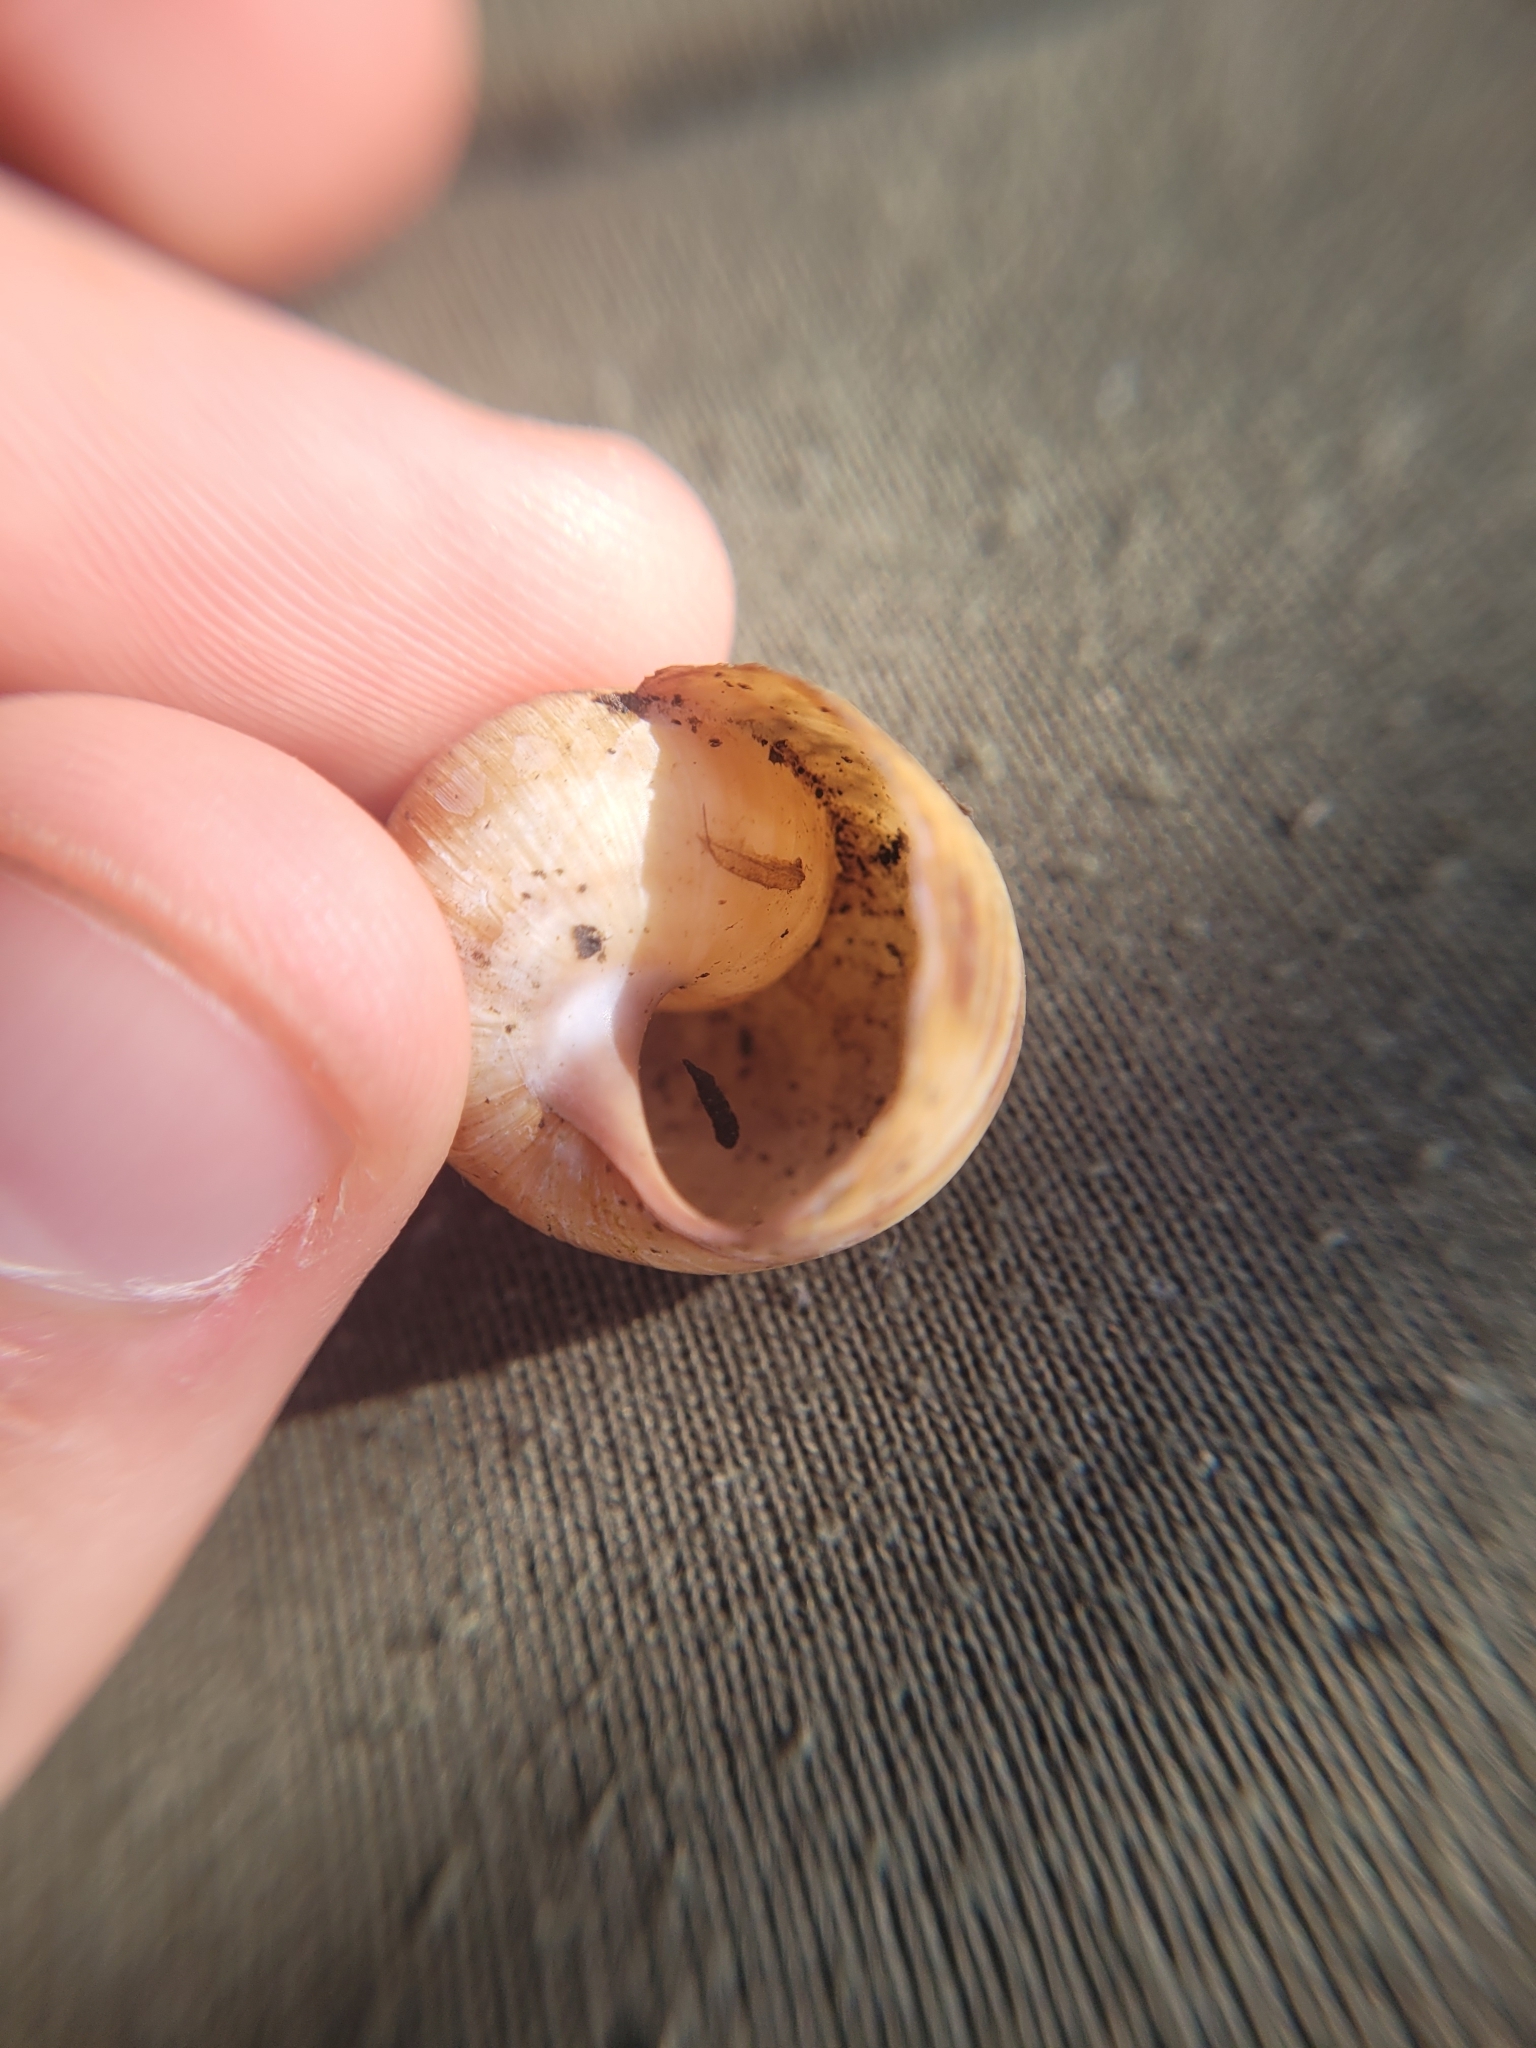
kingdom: Animalia
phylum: Mollusca
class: Gastropoda
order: Stylommatophora
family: Helicidae
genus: Helix
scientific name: Helix pomatia
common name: Roman snail
